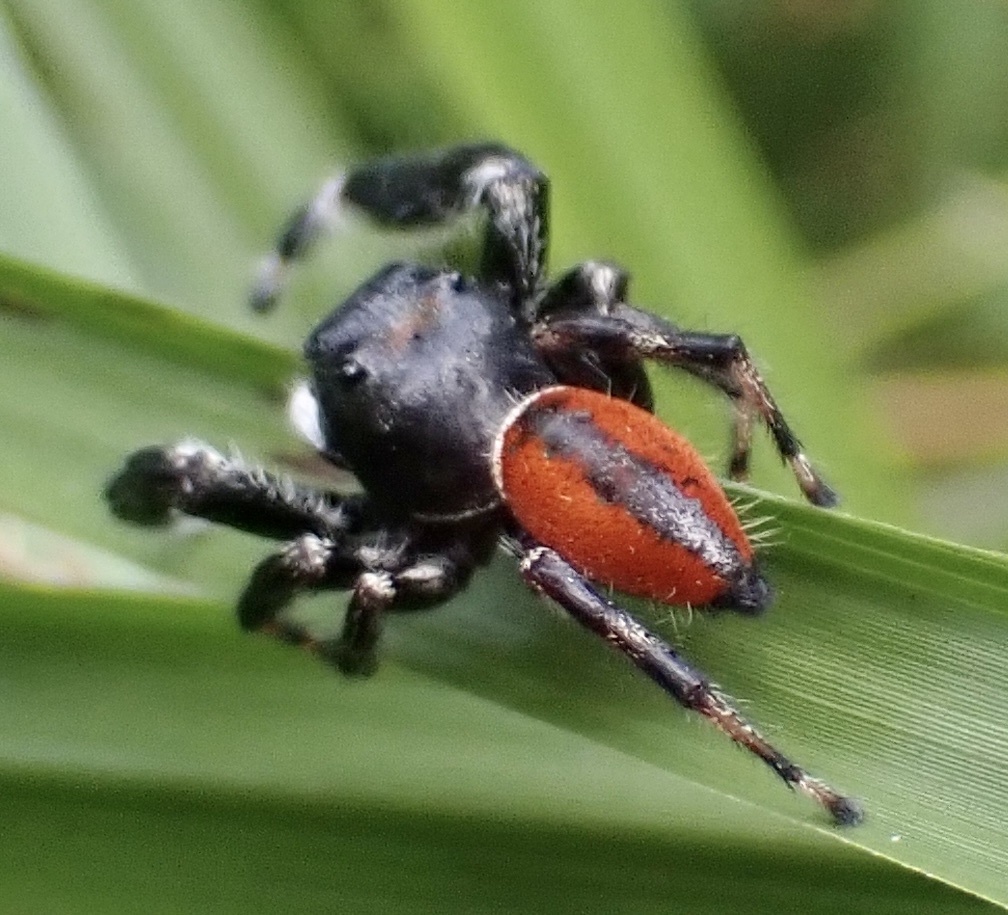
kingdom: Animalia
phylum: Arthropoda
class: Arachnida
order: Araneae
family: Salticidae
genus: Phidippus
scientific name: Phidippus clarus
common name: Brilliant jumping spider
